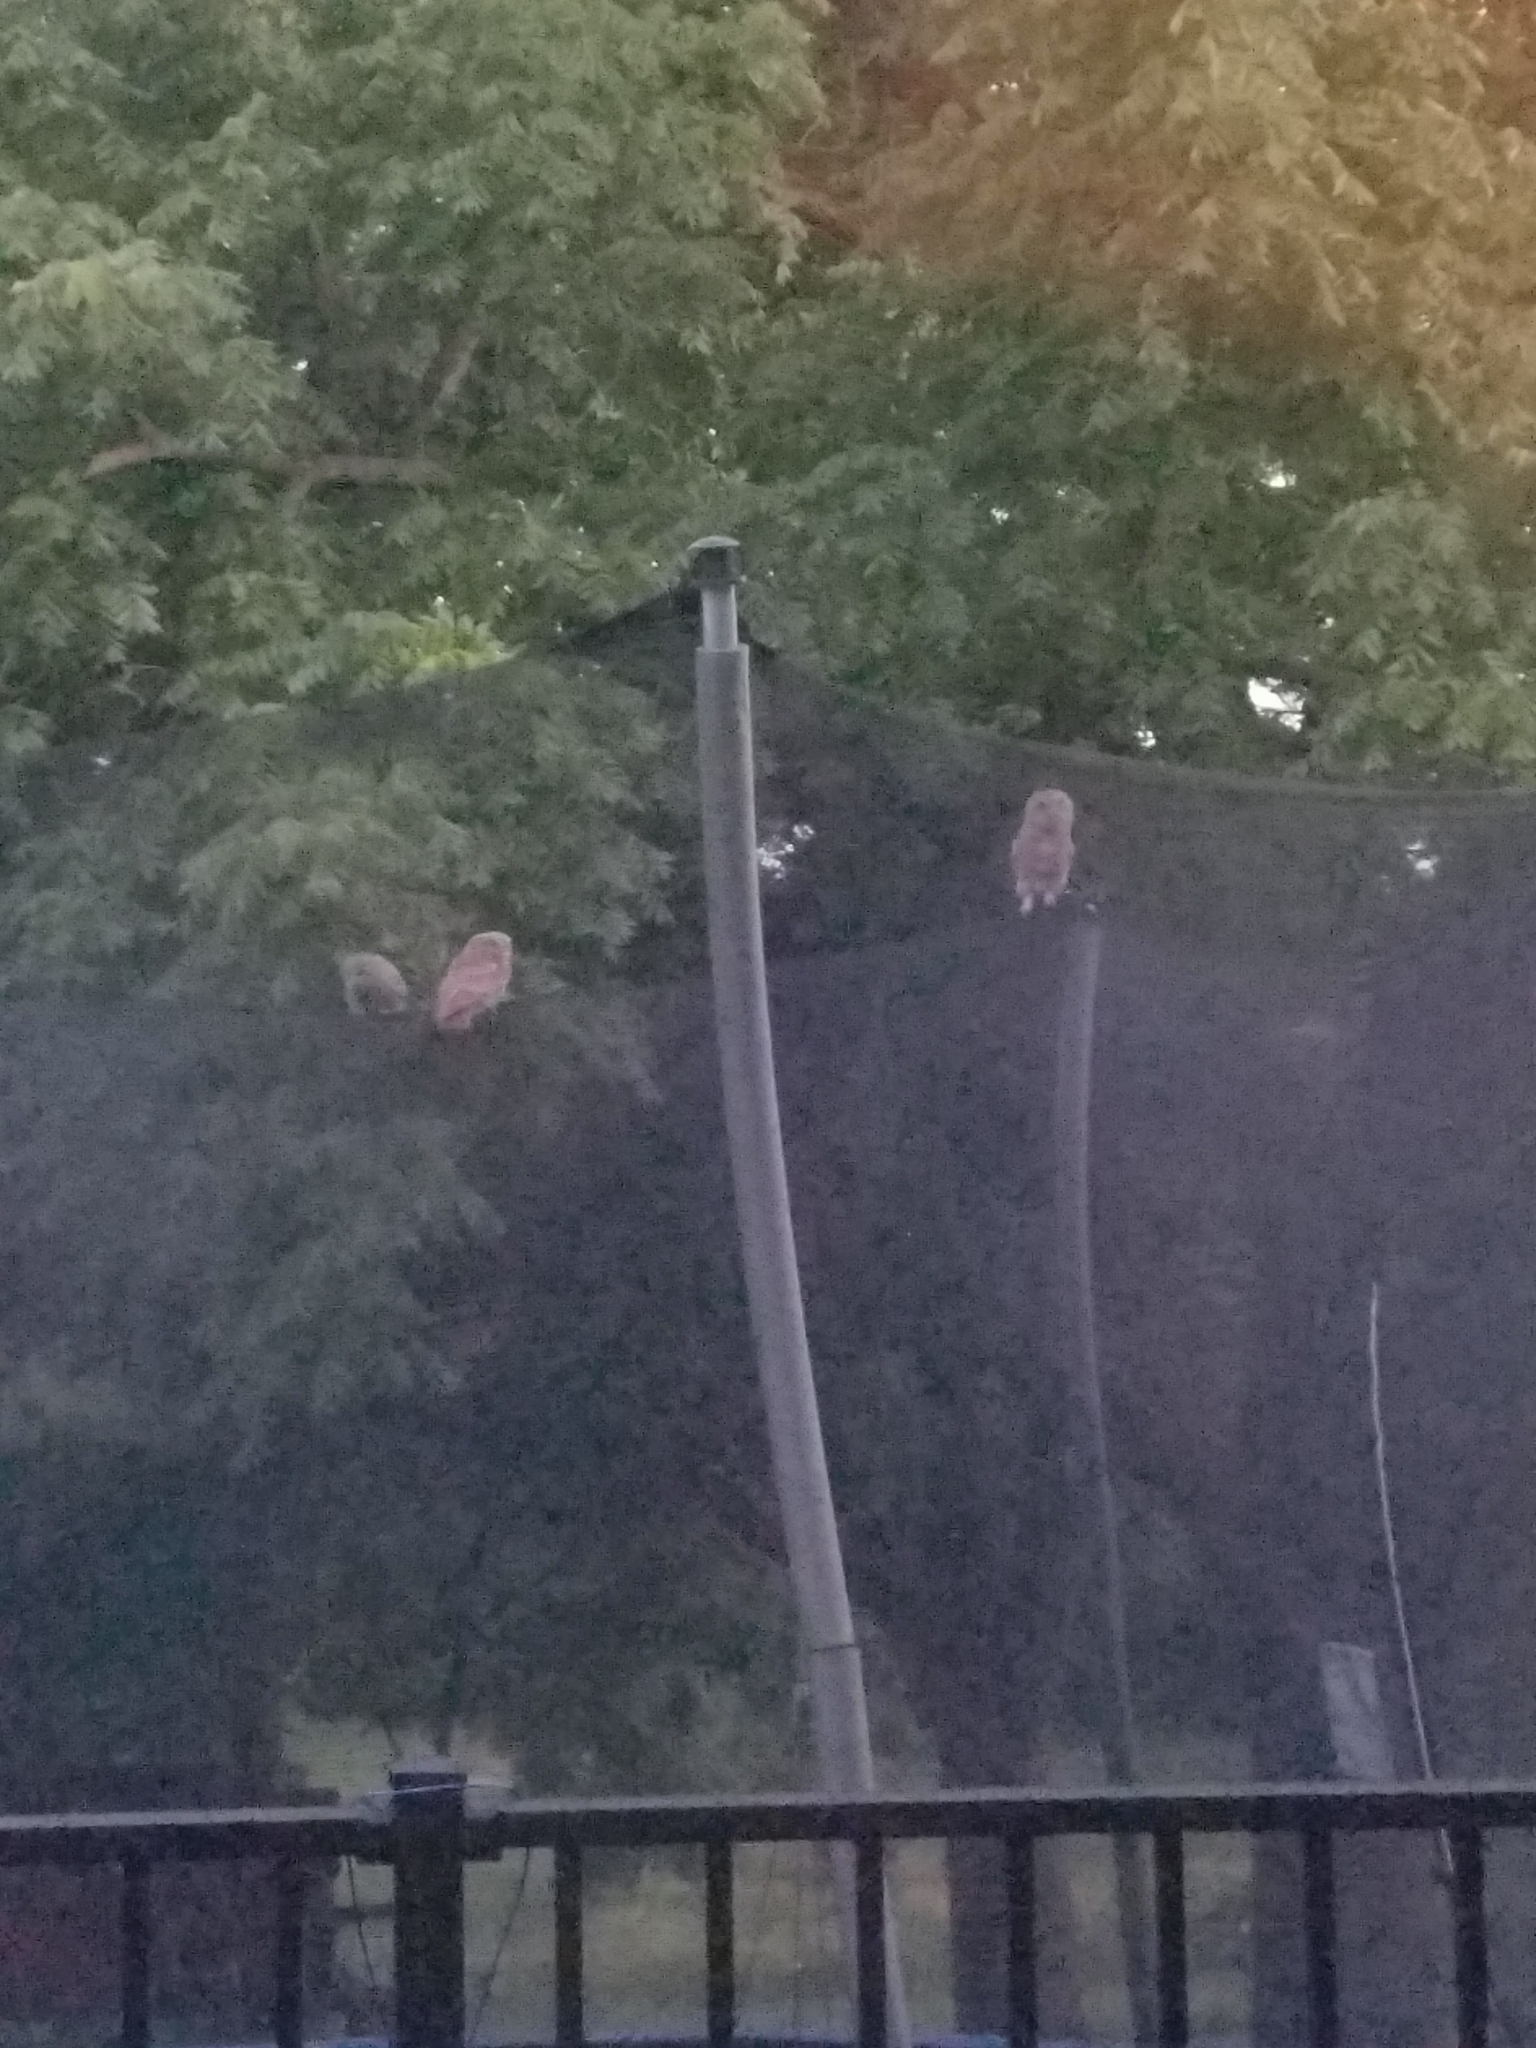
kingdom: Animalia
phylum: Chordata
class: Aves
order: Strigiformes
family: Strigidae
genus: Megascops
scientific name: Megascops asio
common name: Eastern screech-owl
